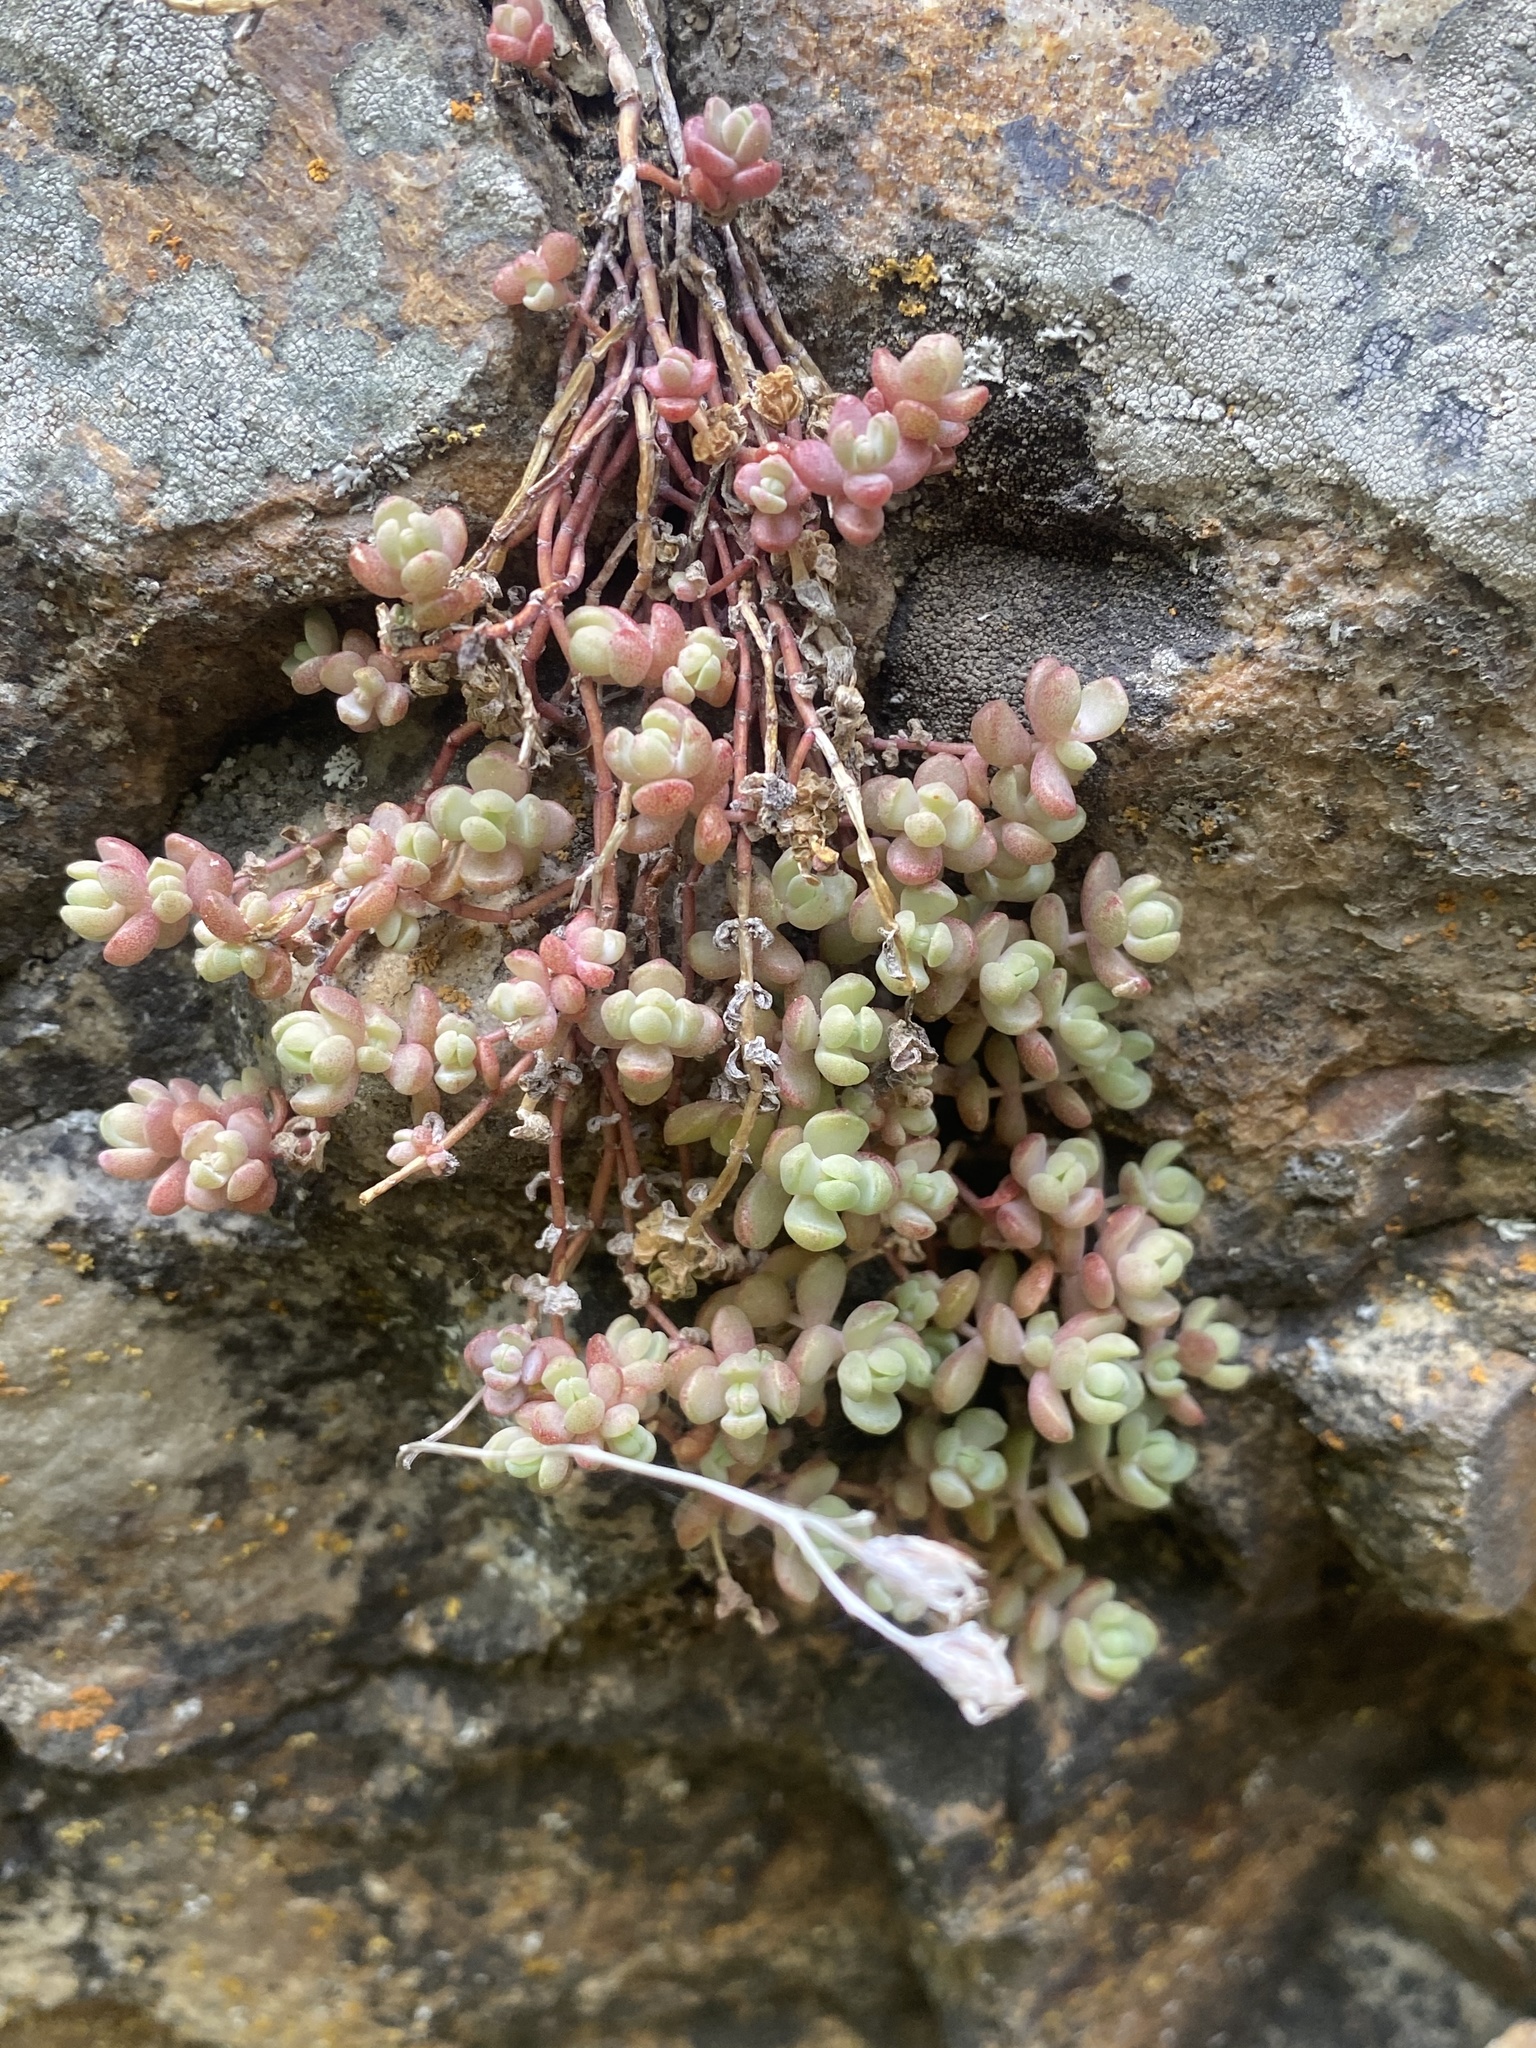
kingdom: Plantae
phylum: Tracheophyta
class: Magnoliopsida
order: Saxifragales
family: Crassulaceae
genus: Sedum
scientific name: Sedum debile
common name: Weak-stem stonecrop
